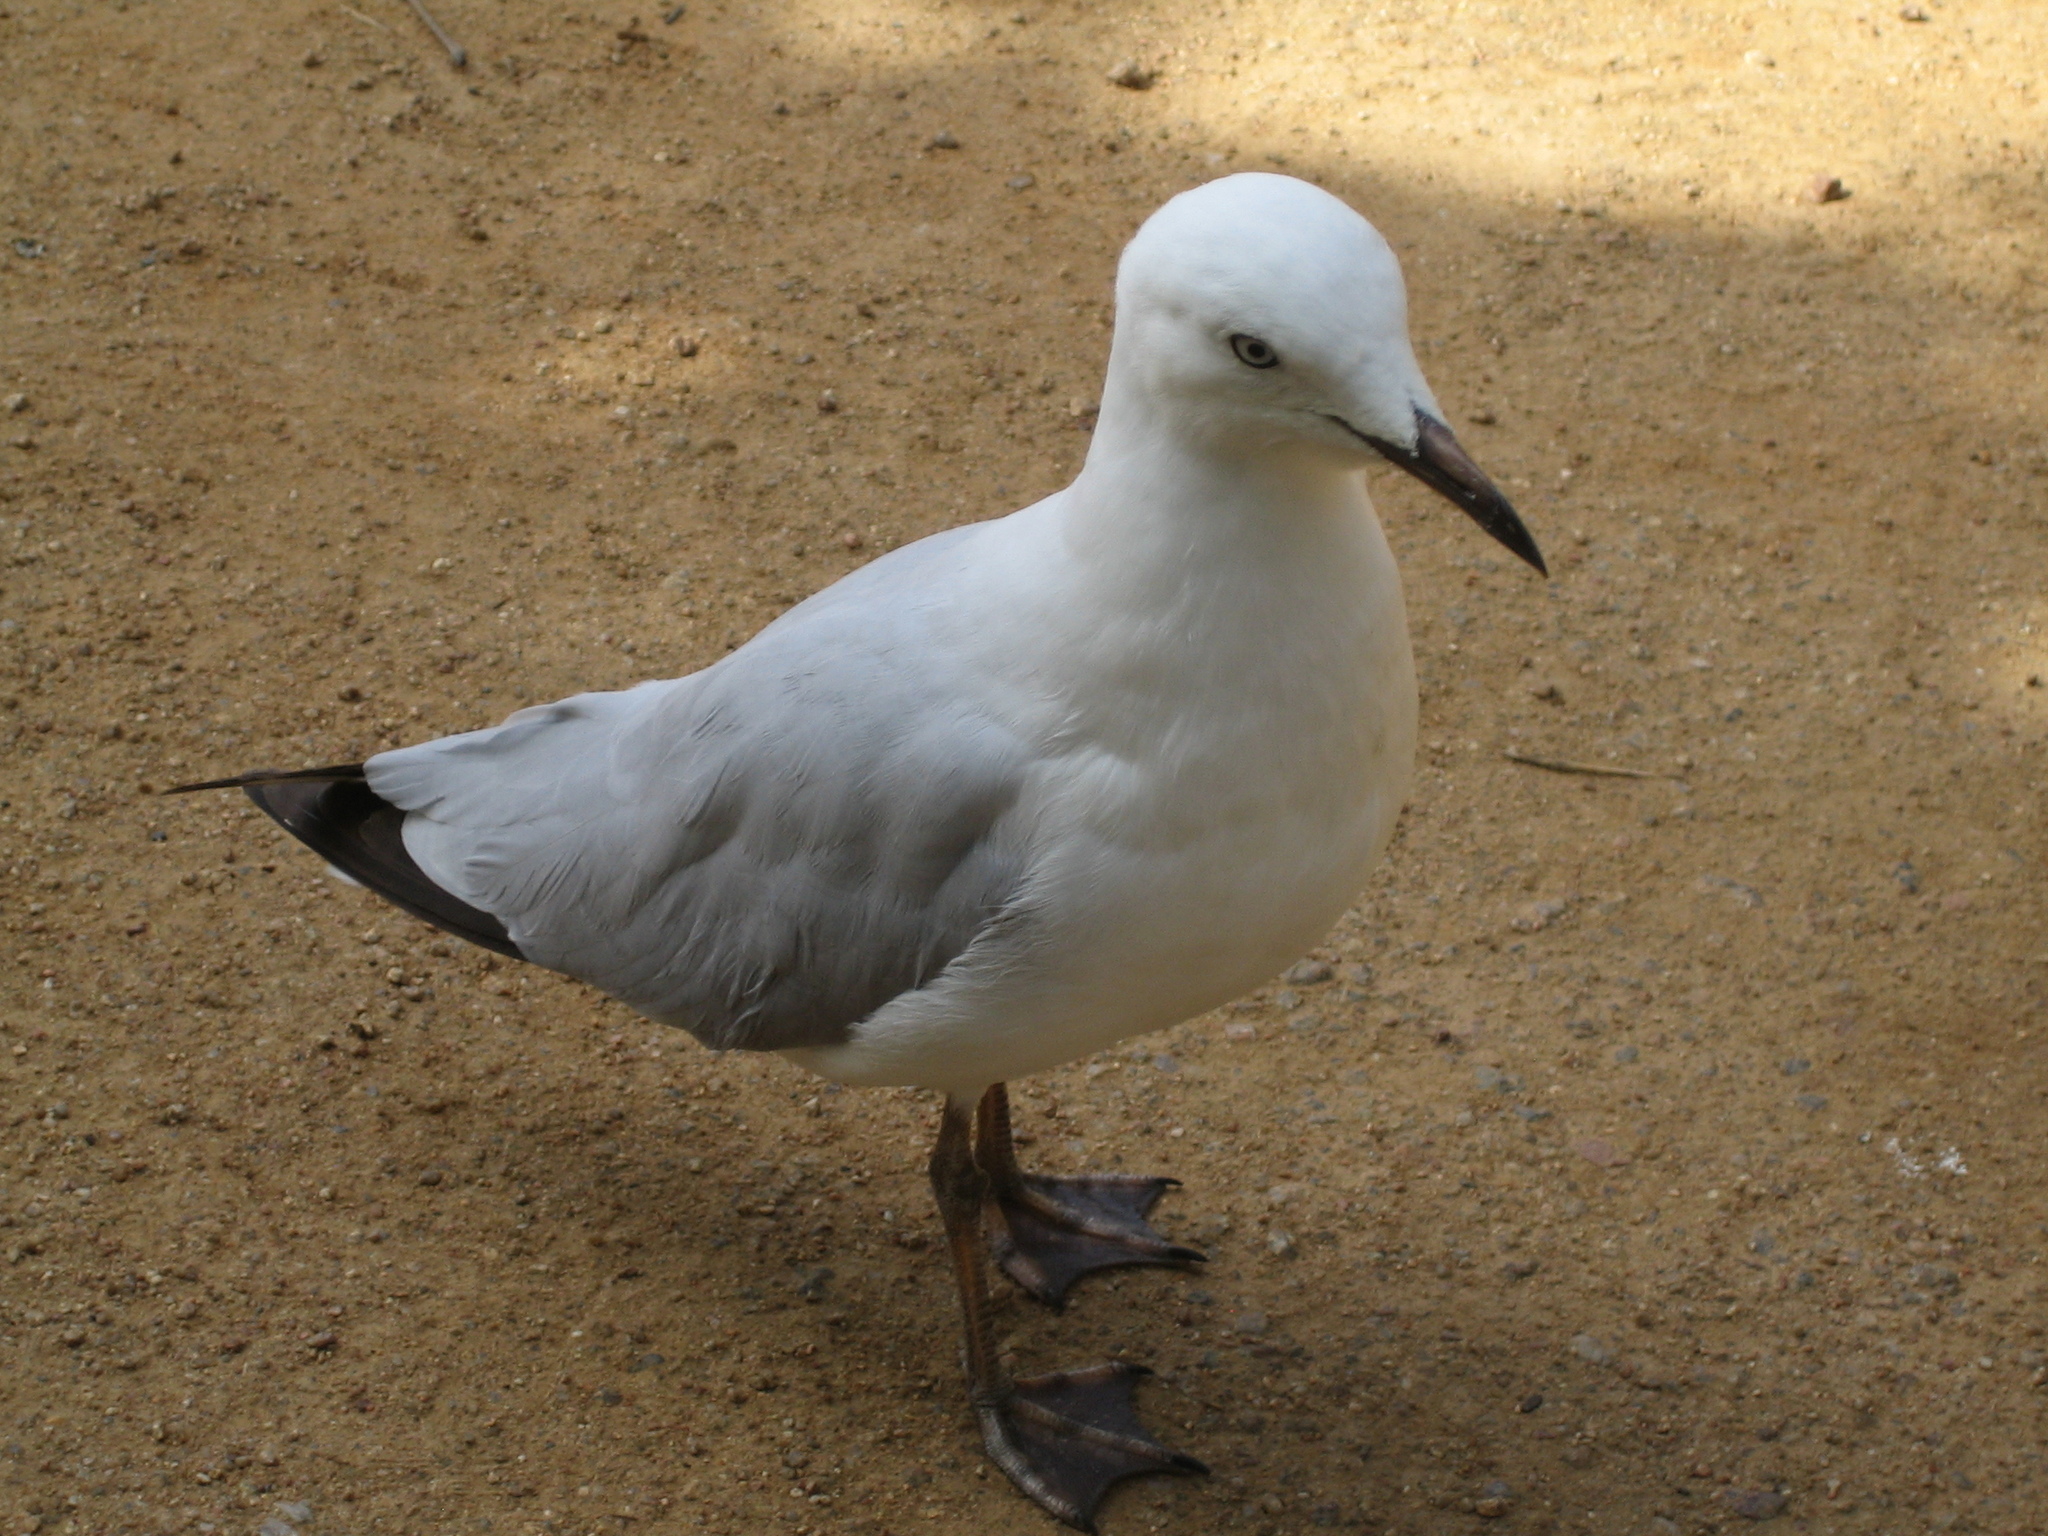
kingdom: Animalia
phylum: Chordata
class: Aves
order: Charadriiformes
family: Laridae
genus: Chroicocephalus
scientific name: Chroicocephalus novaehollandiae
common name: Silver gull
